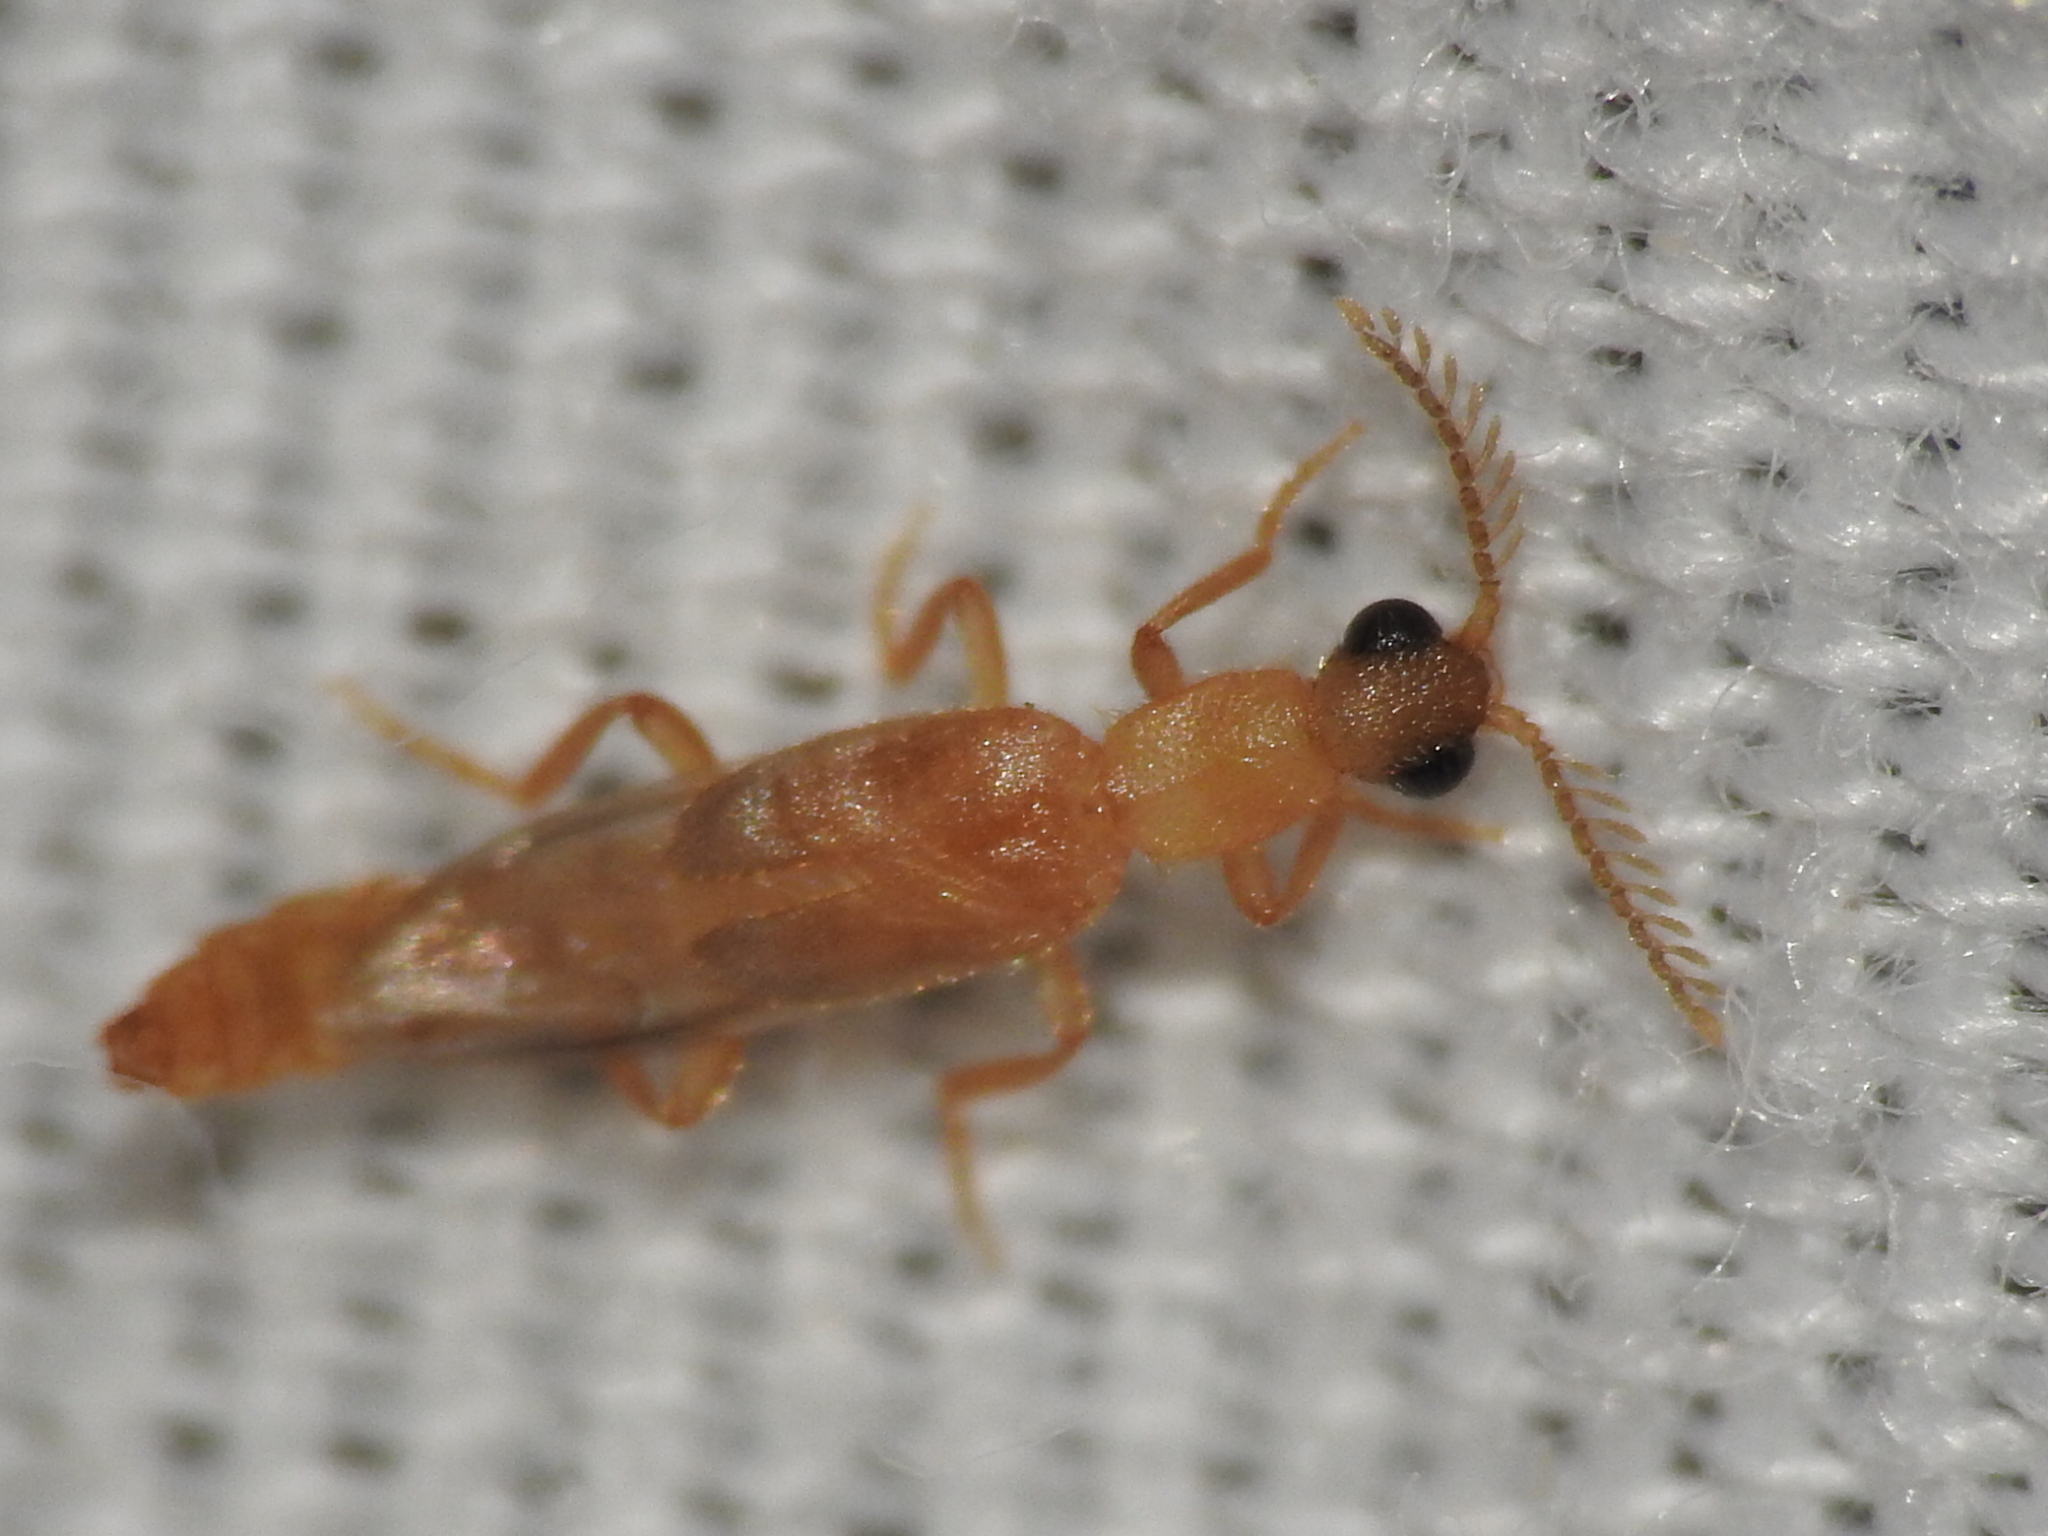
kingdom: Animalia
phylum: Arthropoda
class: Insecta
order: Coleoptera
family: Phengodidae
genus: Cenophengus
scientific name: Cenophengus pallidus
